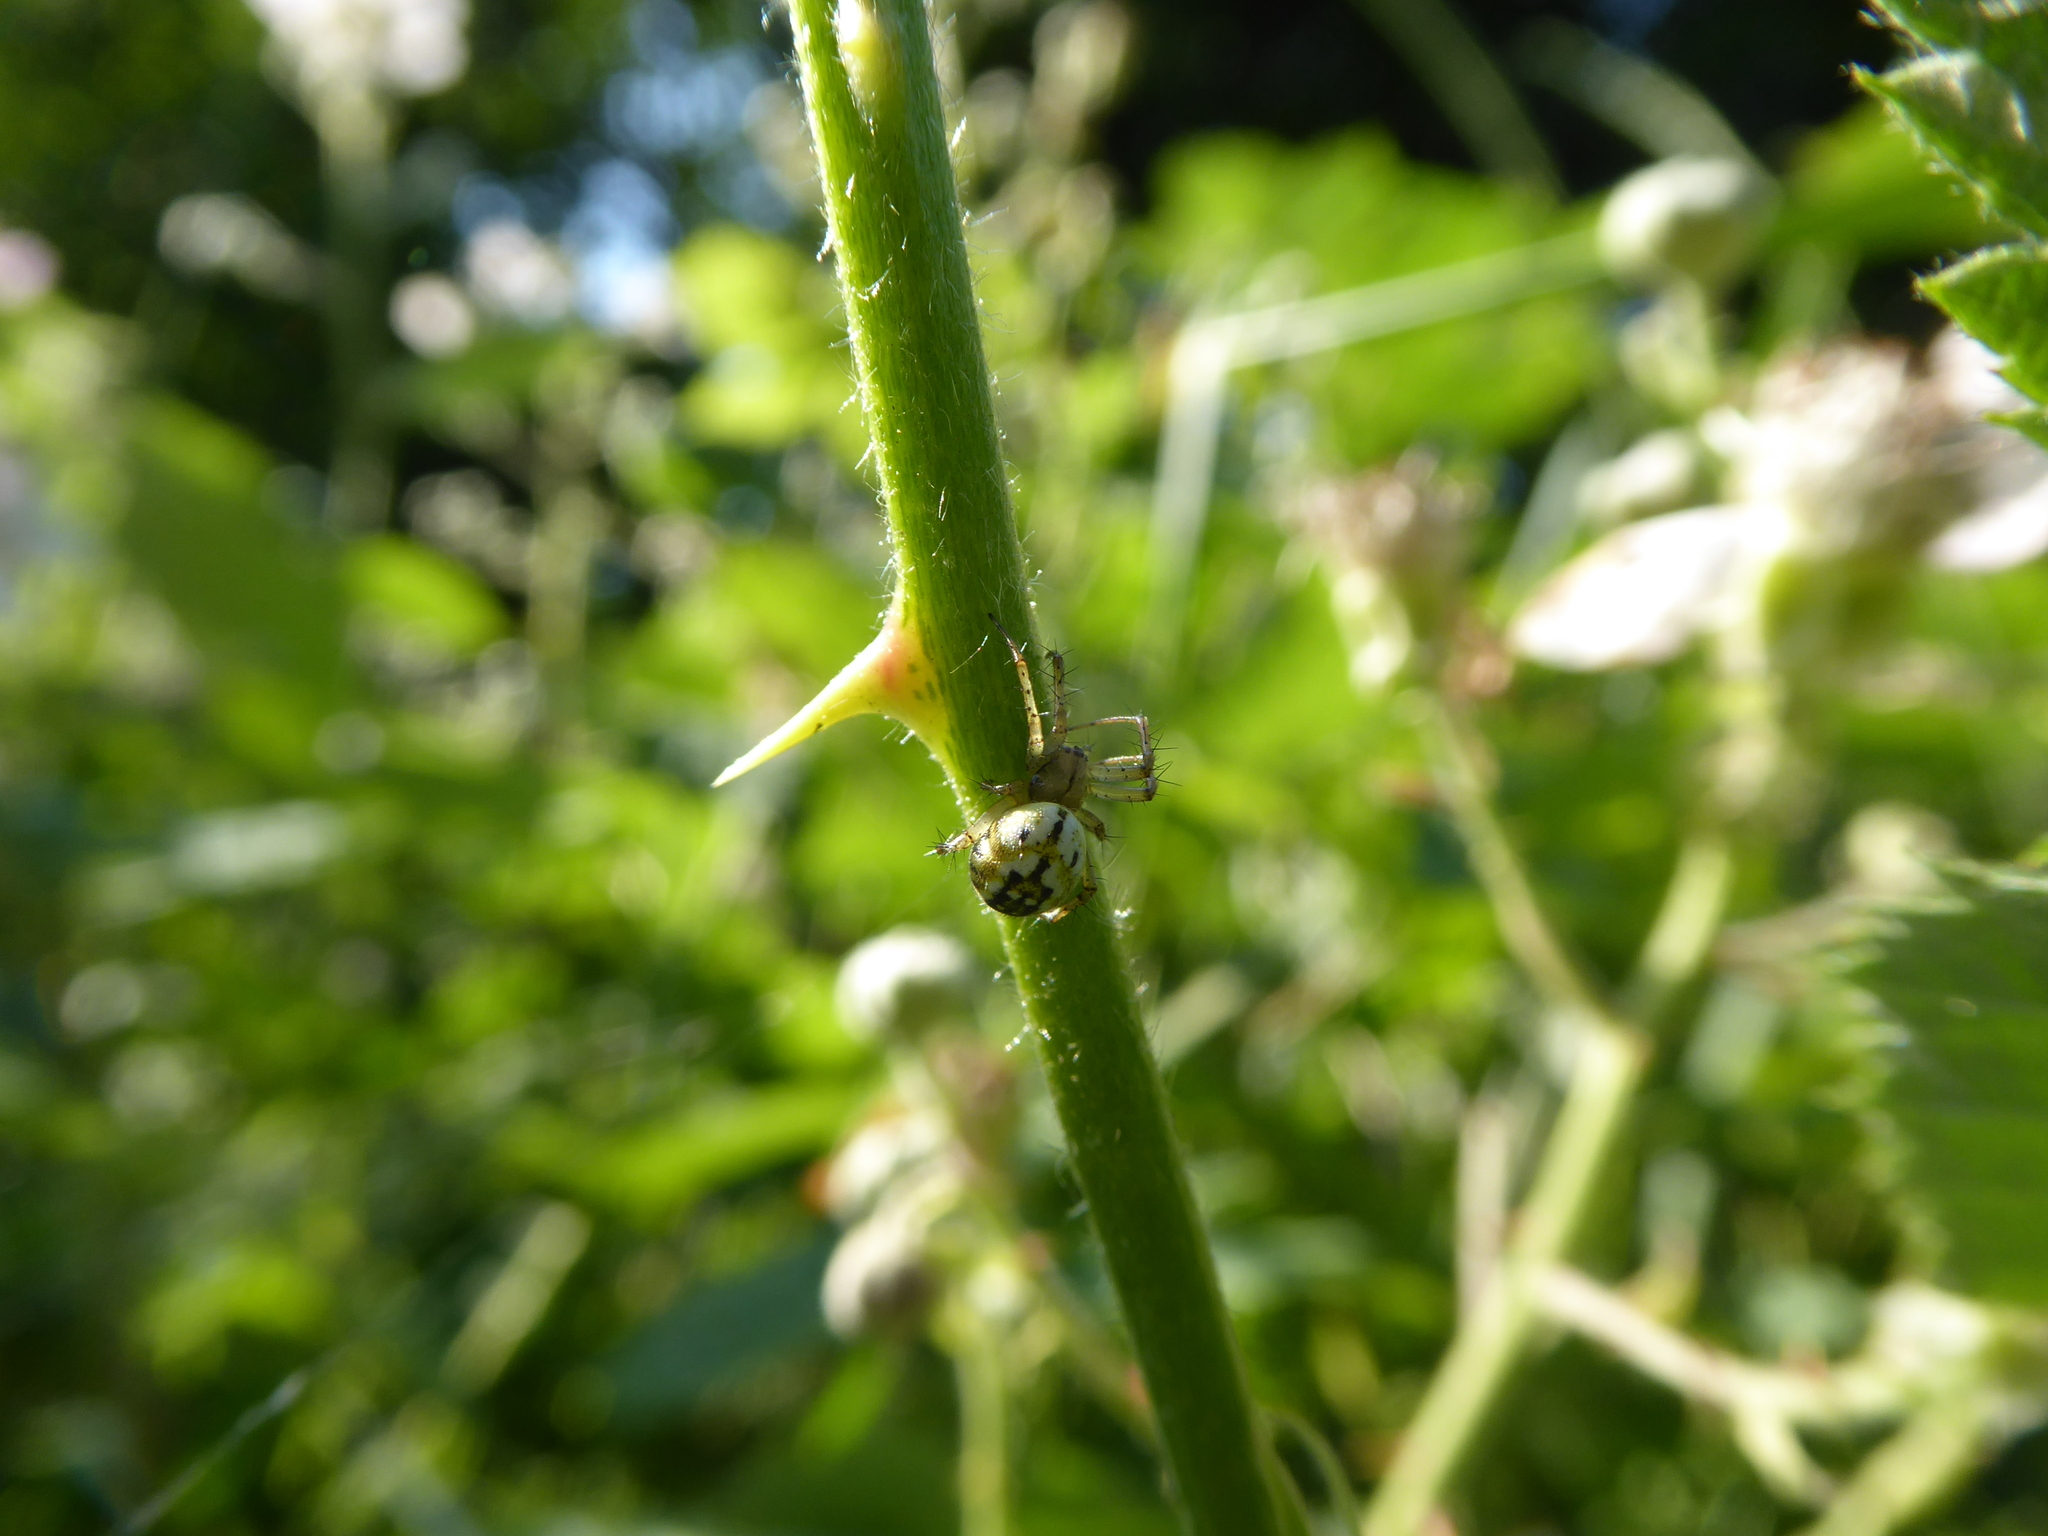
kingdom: Animalia
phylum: Arthropoda
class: Arachnida
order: Araneae
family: Araneidae
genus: Mangora
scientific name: Mangora acalypha
